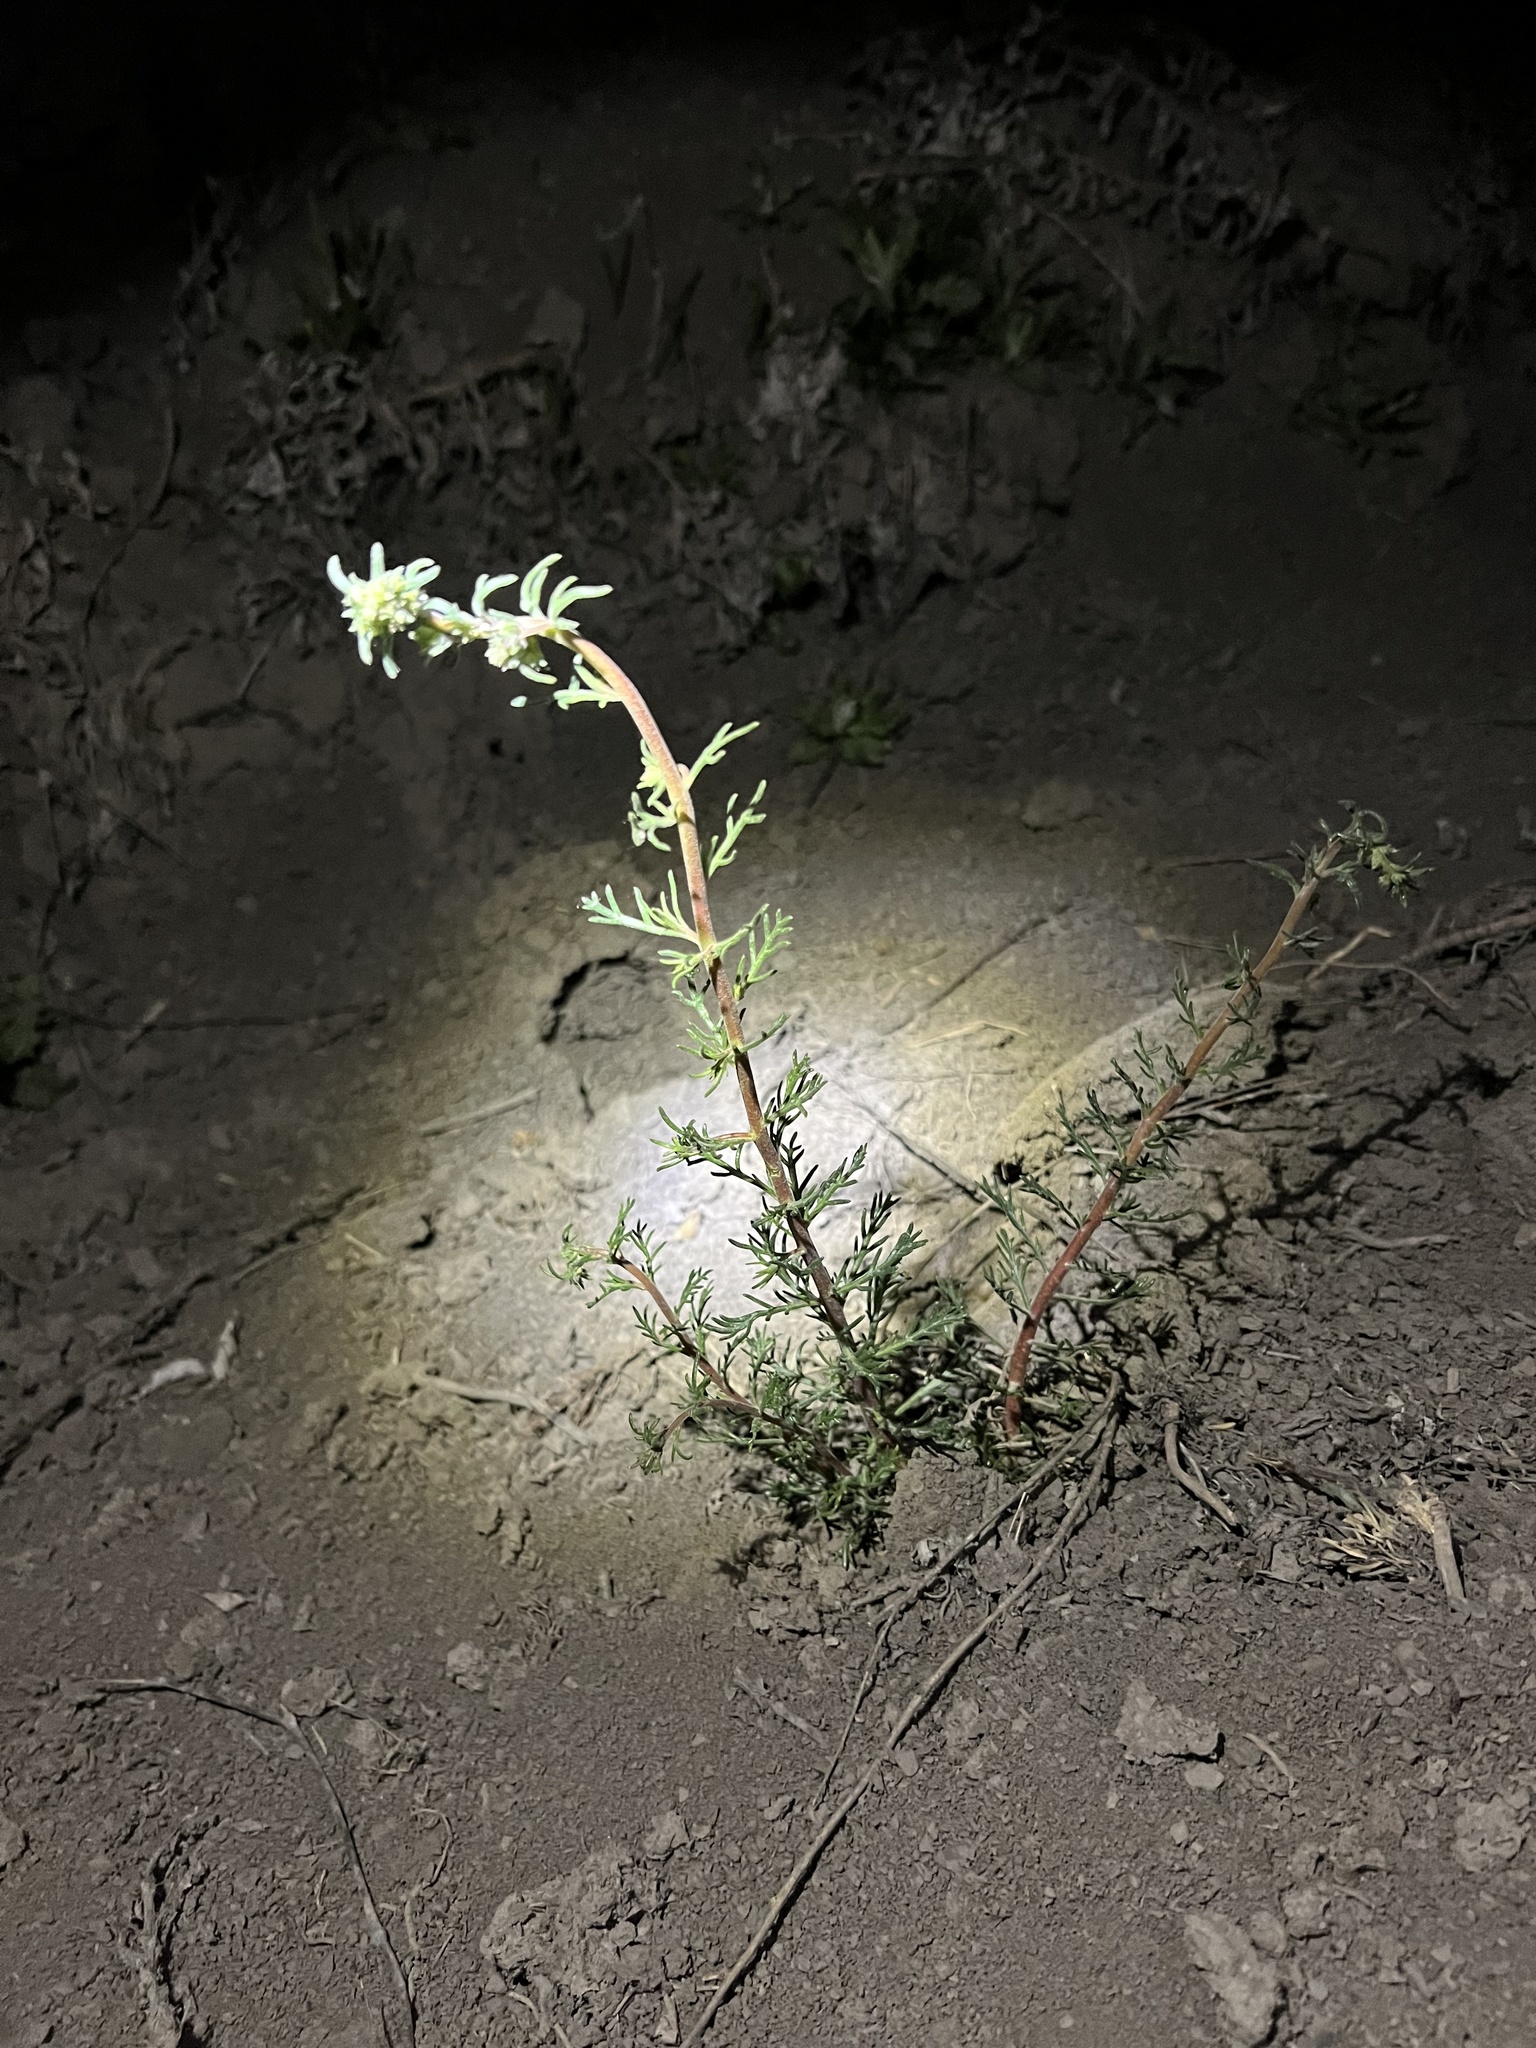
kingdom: Plantae
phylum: Tracheophyta
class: Magnoliopsida
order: Ericales
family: Polemoniaceae
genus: Ipomopsis
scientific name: Ipomopsis polyantha
